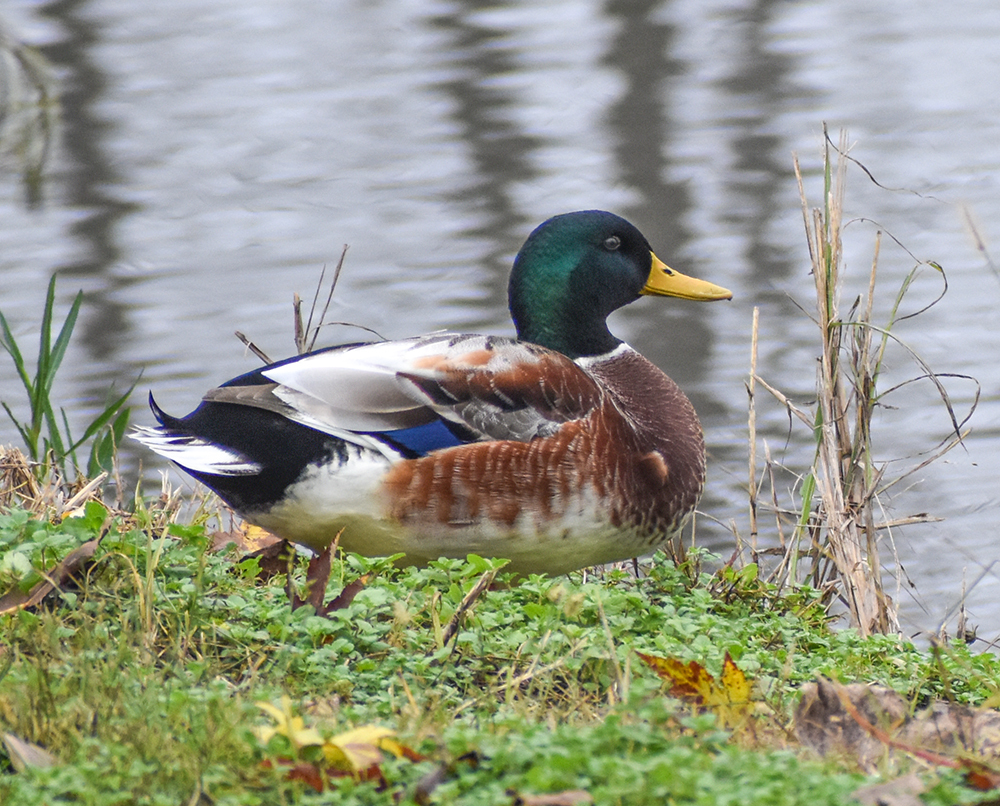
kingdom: Animalia
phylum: Chordata
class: Aves
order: Anseriformes
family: Anatidae
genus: Anas
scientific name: Anas platyrhynchos
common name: Mallard
